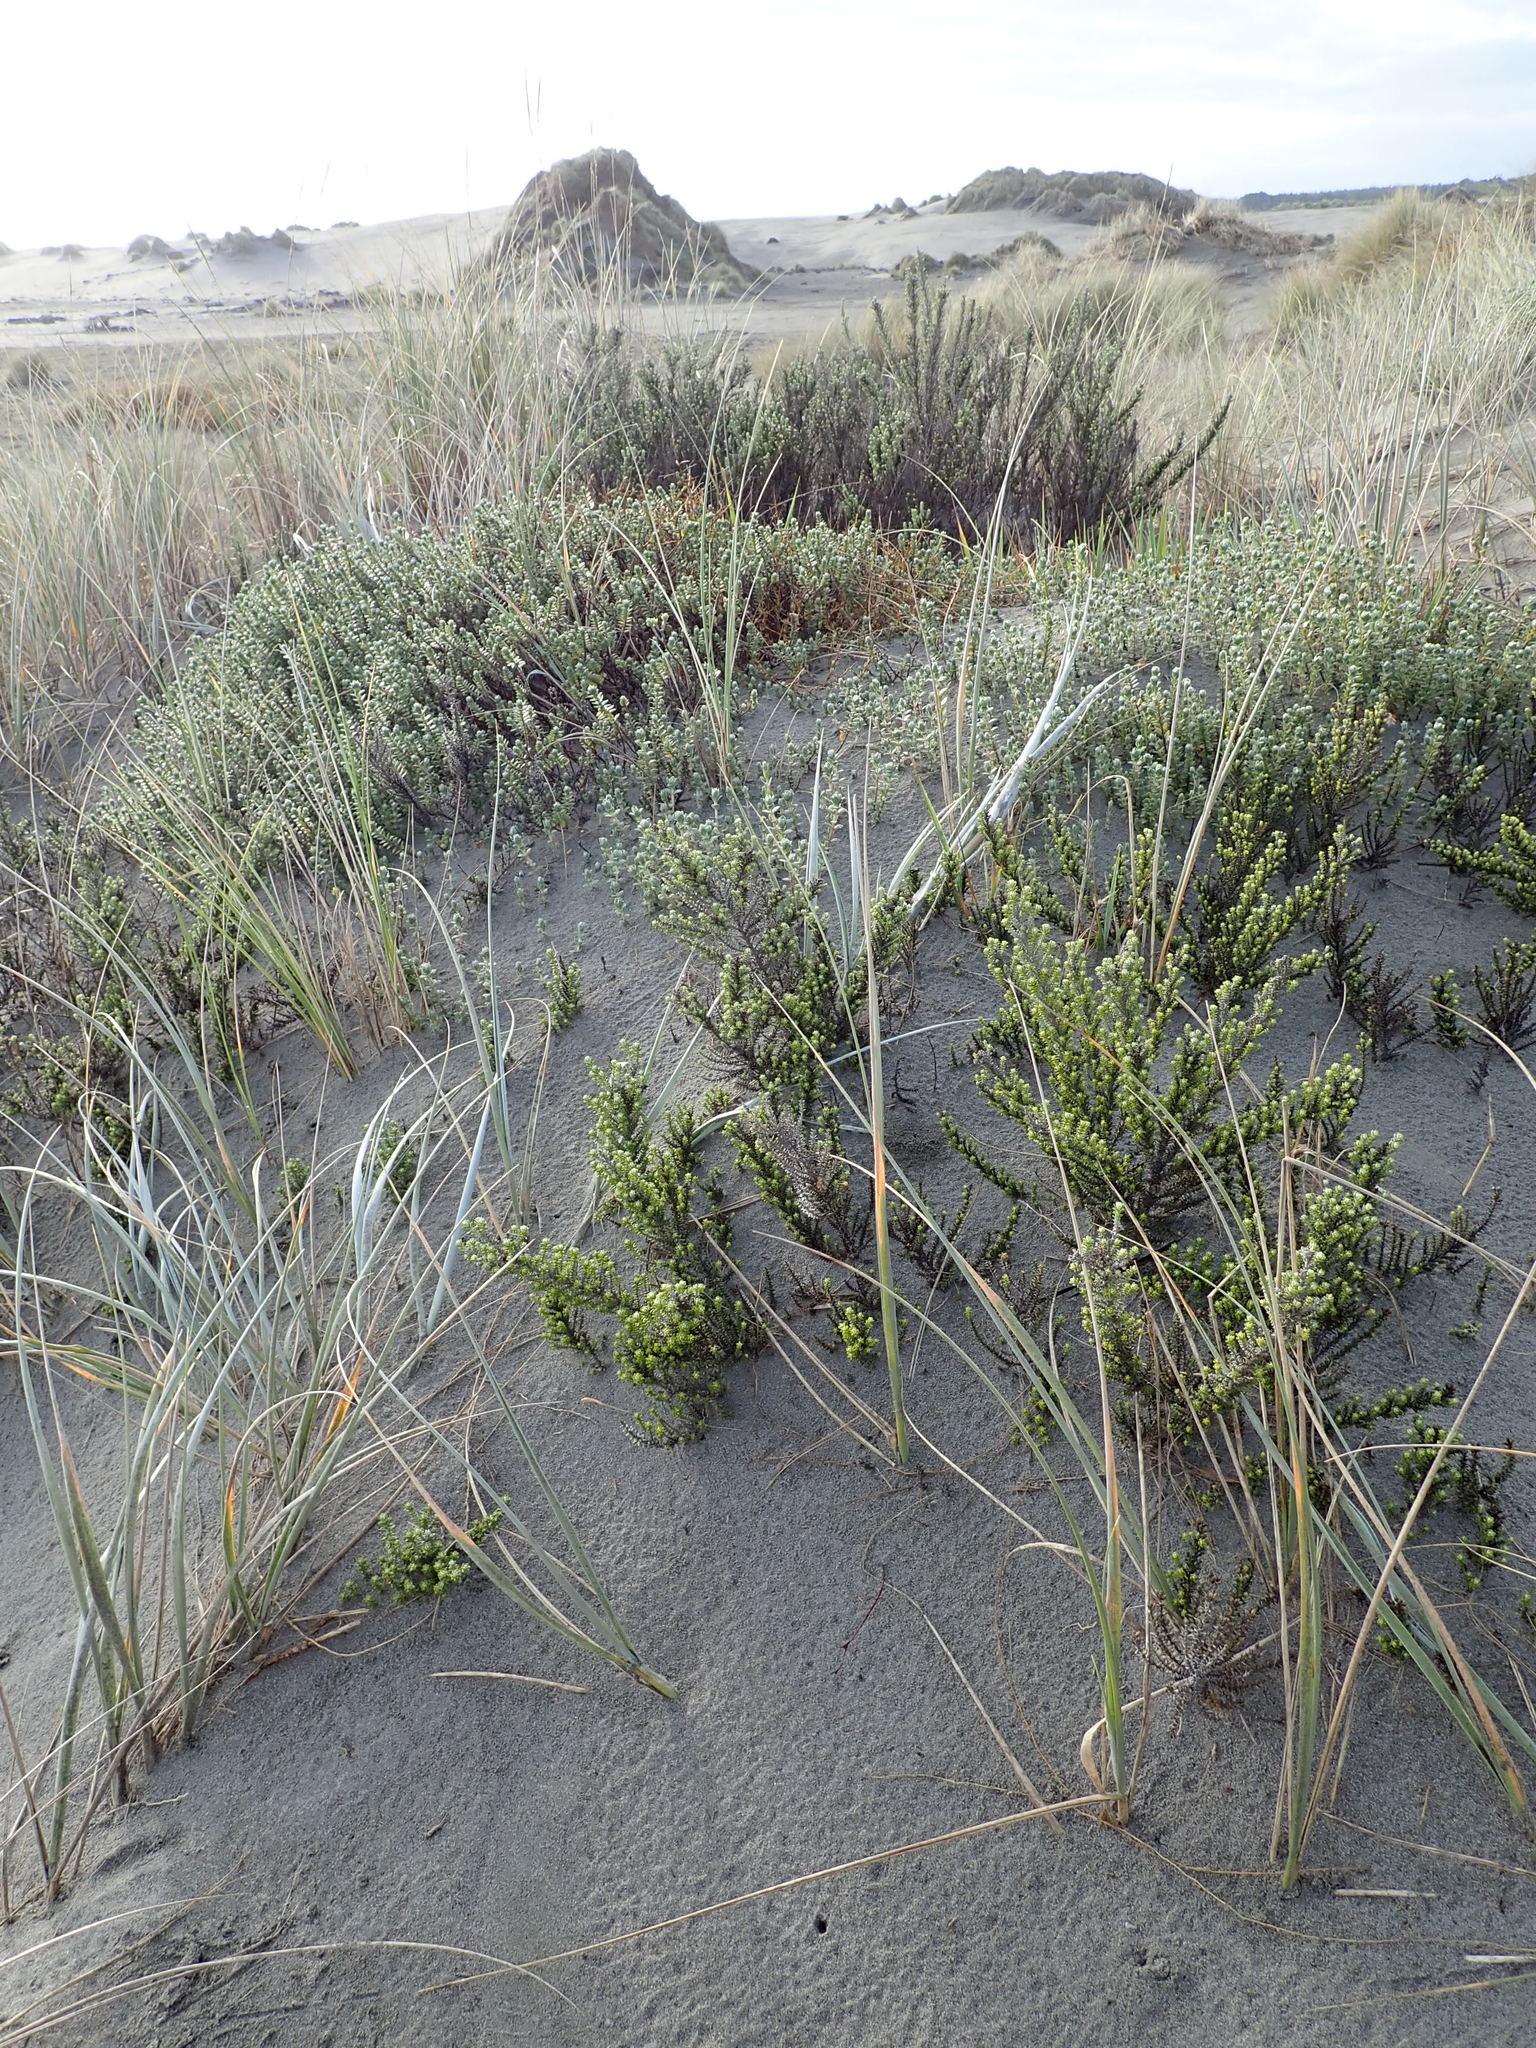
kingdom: Plantae
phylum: Tracheophyta
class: Magnoliopsida
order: Asterales
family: Asteraceae
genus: Ozothamnus
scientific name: Ozothamnus leptophyllus
